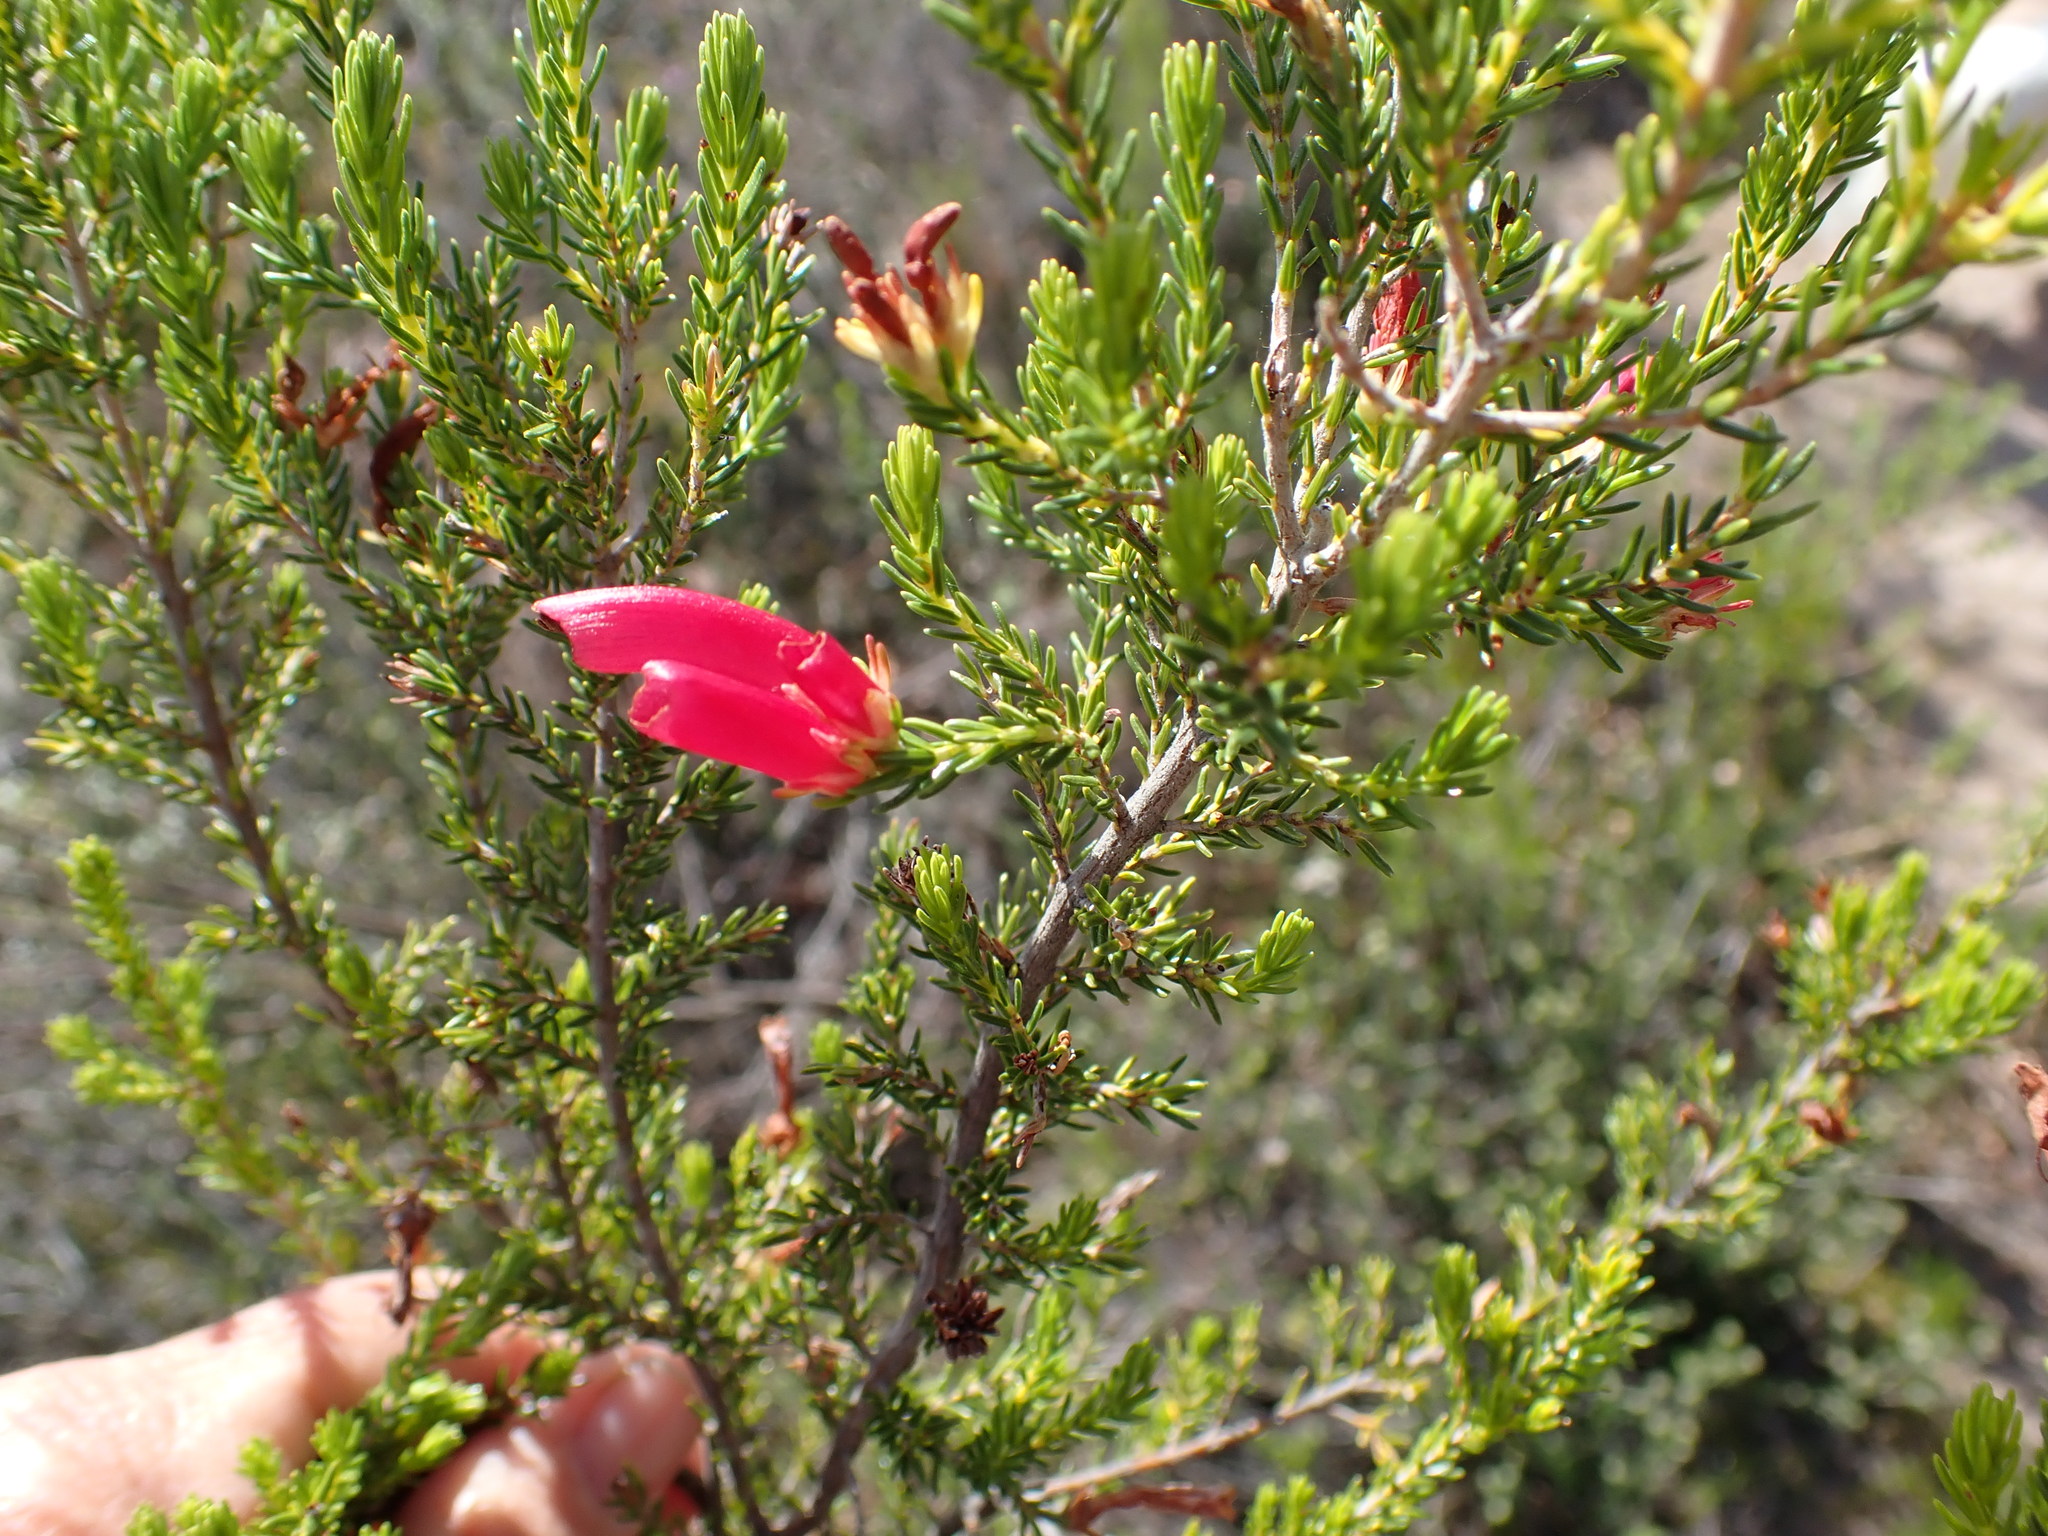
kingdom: Plantae
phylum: Tracheophyta
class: Magnoliopsida
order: Ericales
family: Ericaceae
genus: Erica
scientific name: Erica discolor
